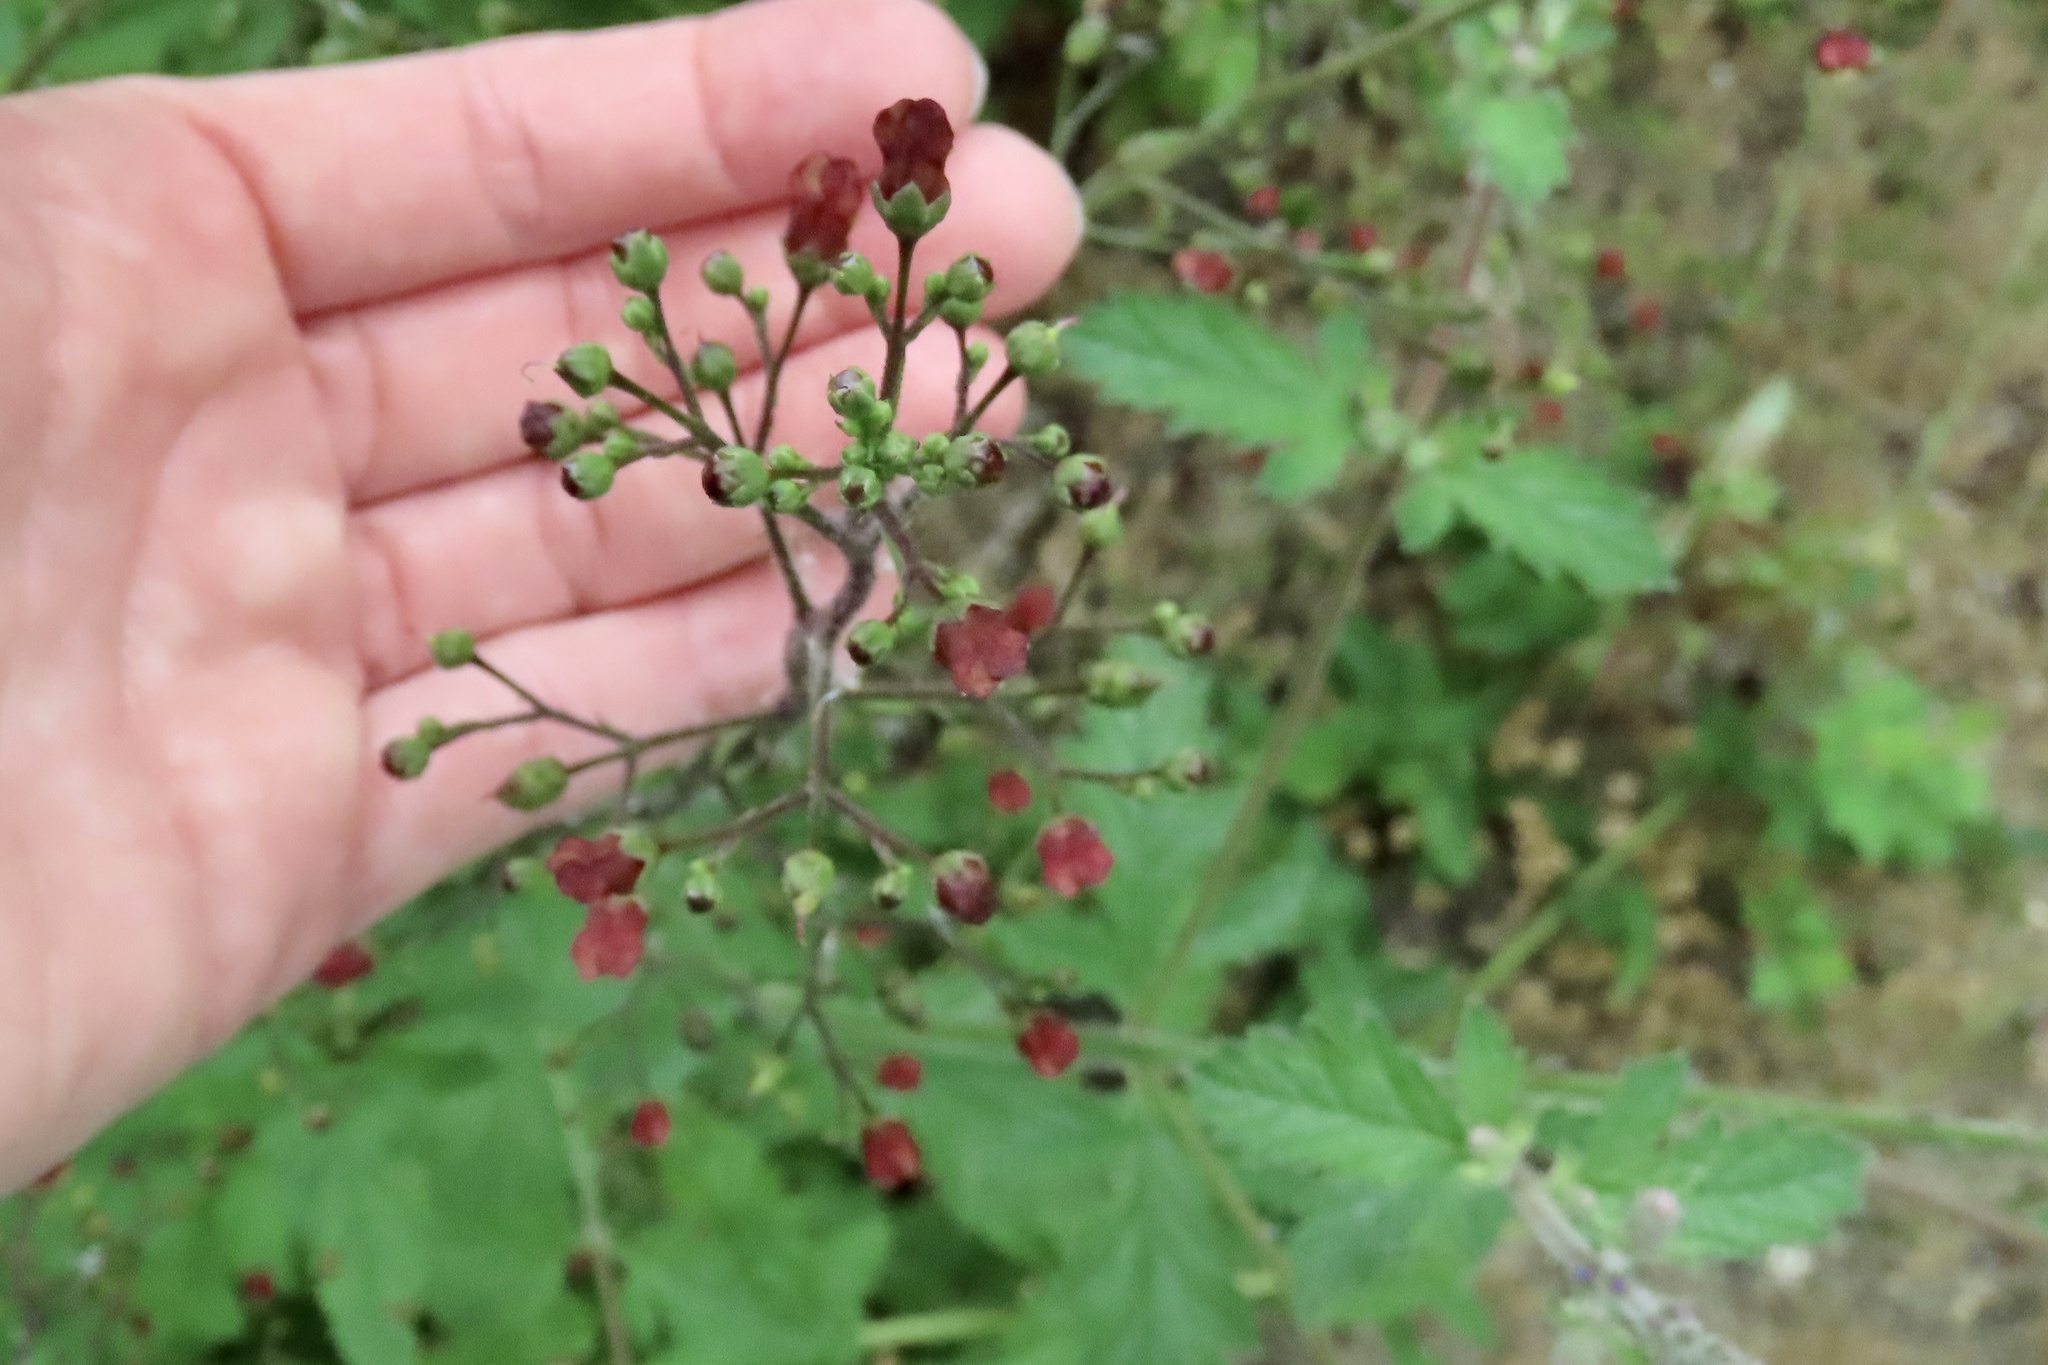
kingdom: Plantae
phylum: Tracheophyta
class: Magnoliopsida
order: Lamiales
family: Scrophulariaceae
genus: Scrophularia
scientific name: Scrophularia californica
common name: California figwort
